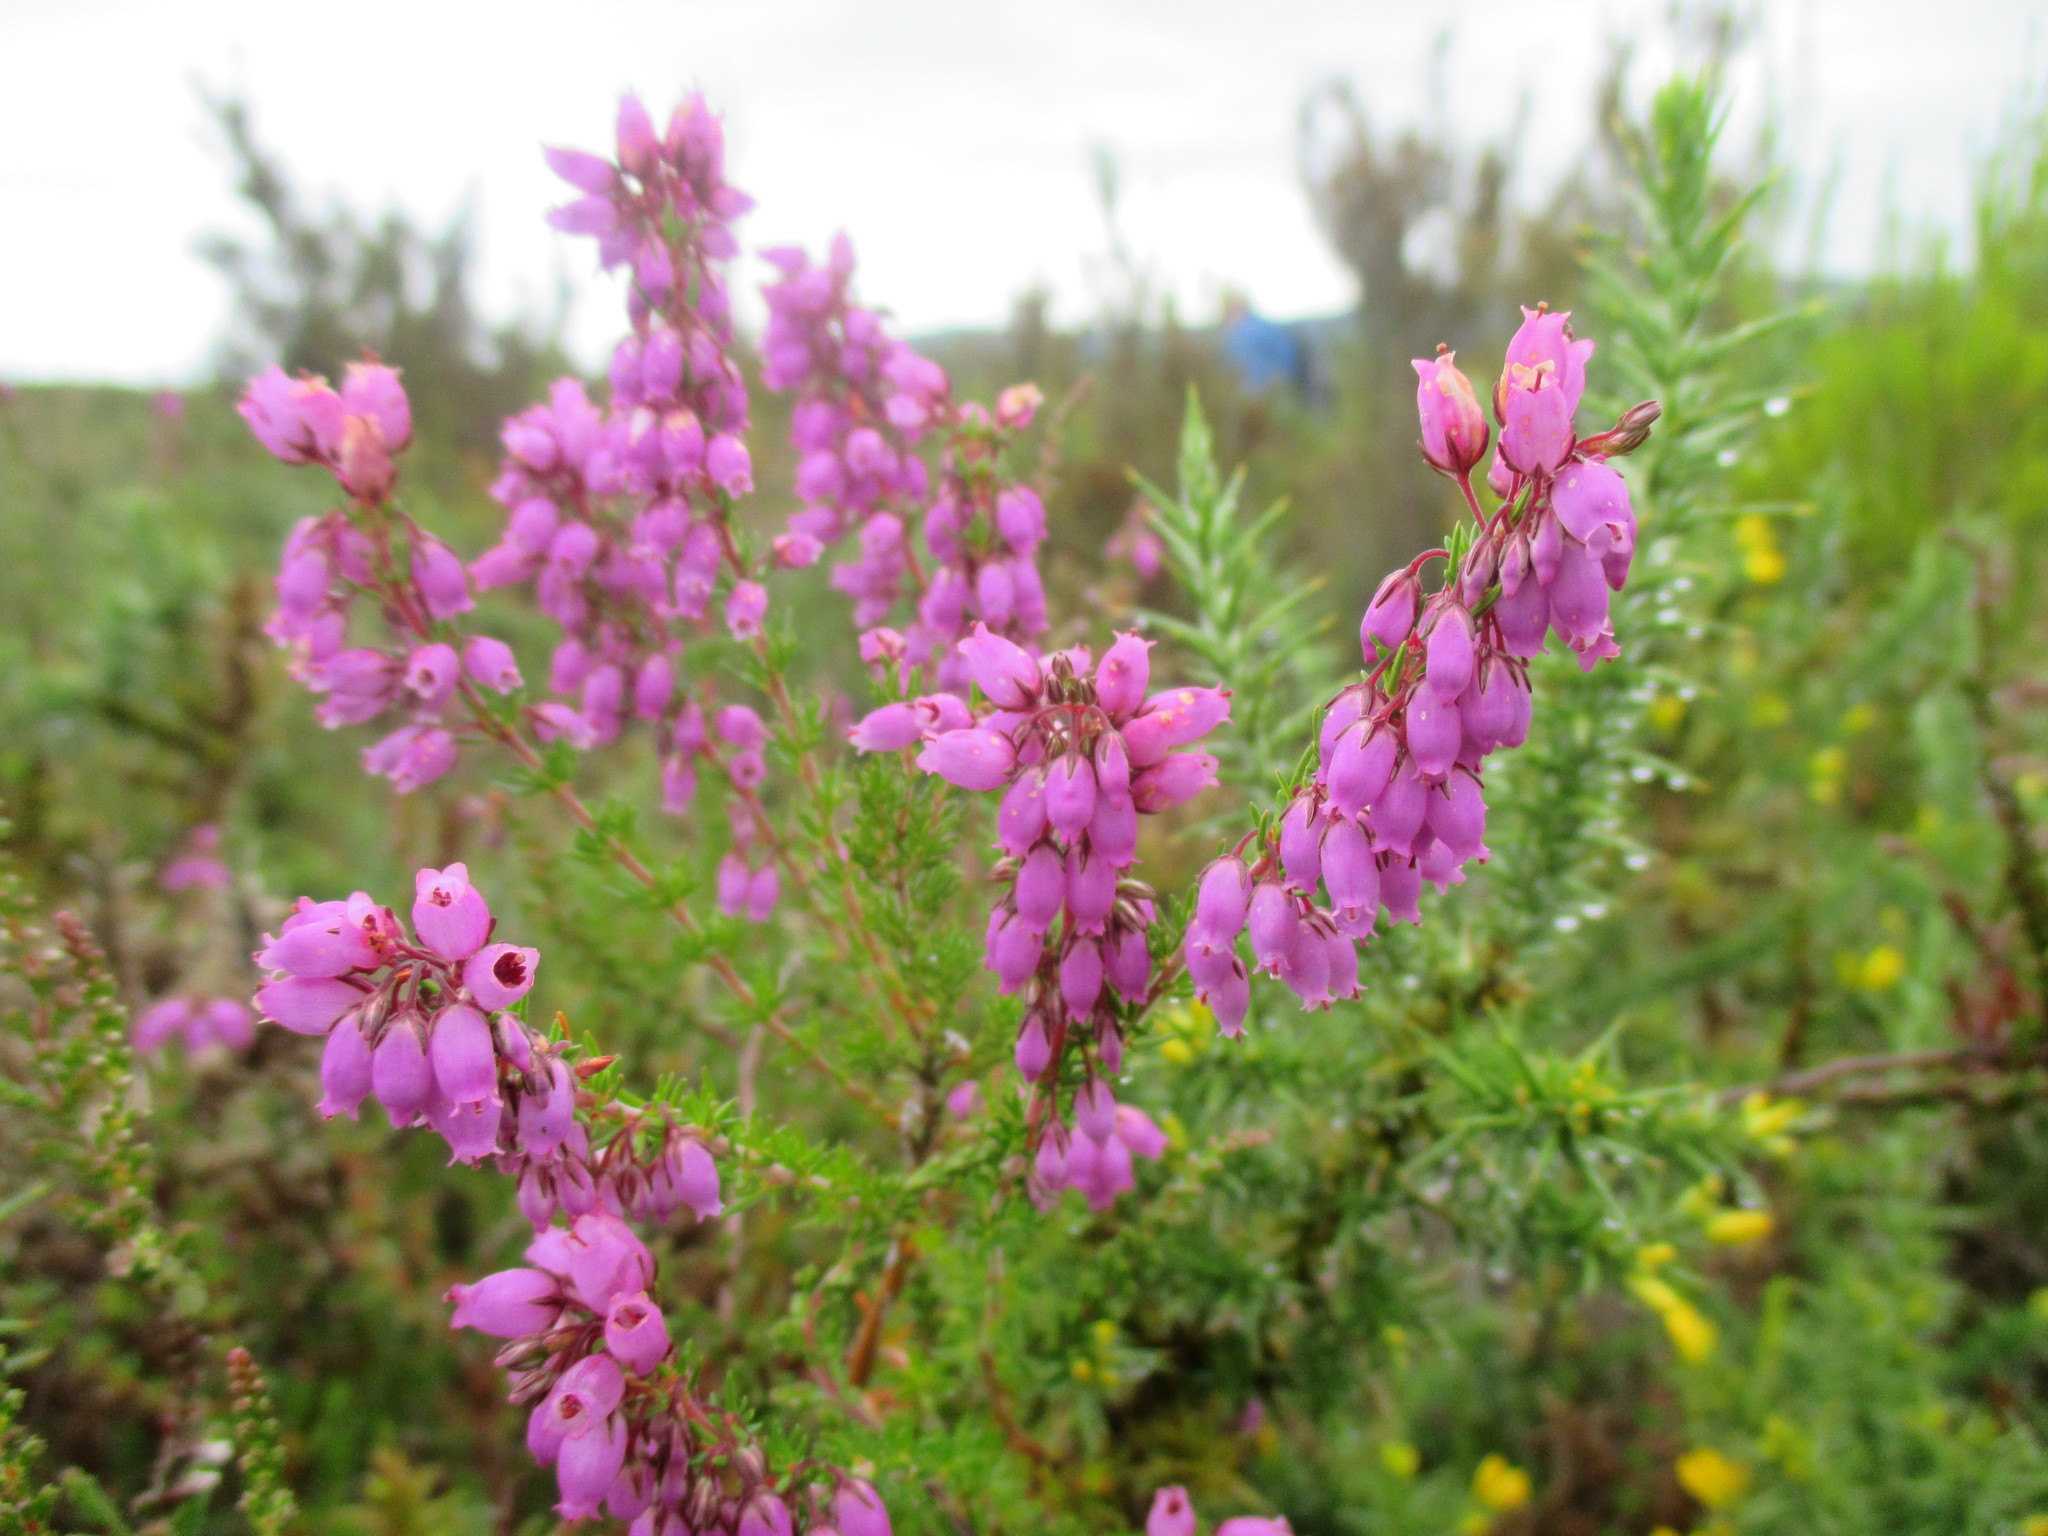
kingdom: Plantae
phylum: Tracheophyta
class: Magnoliopsida
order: Ericales
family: Ericaceae
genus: Erica
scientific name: Erica cinerea
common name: Bell heather
